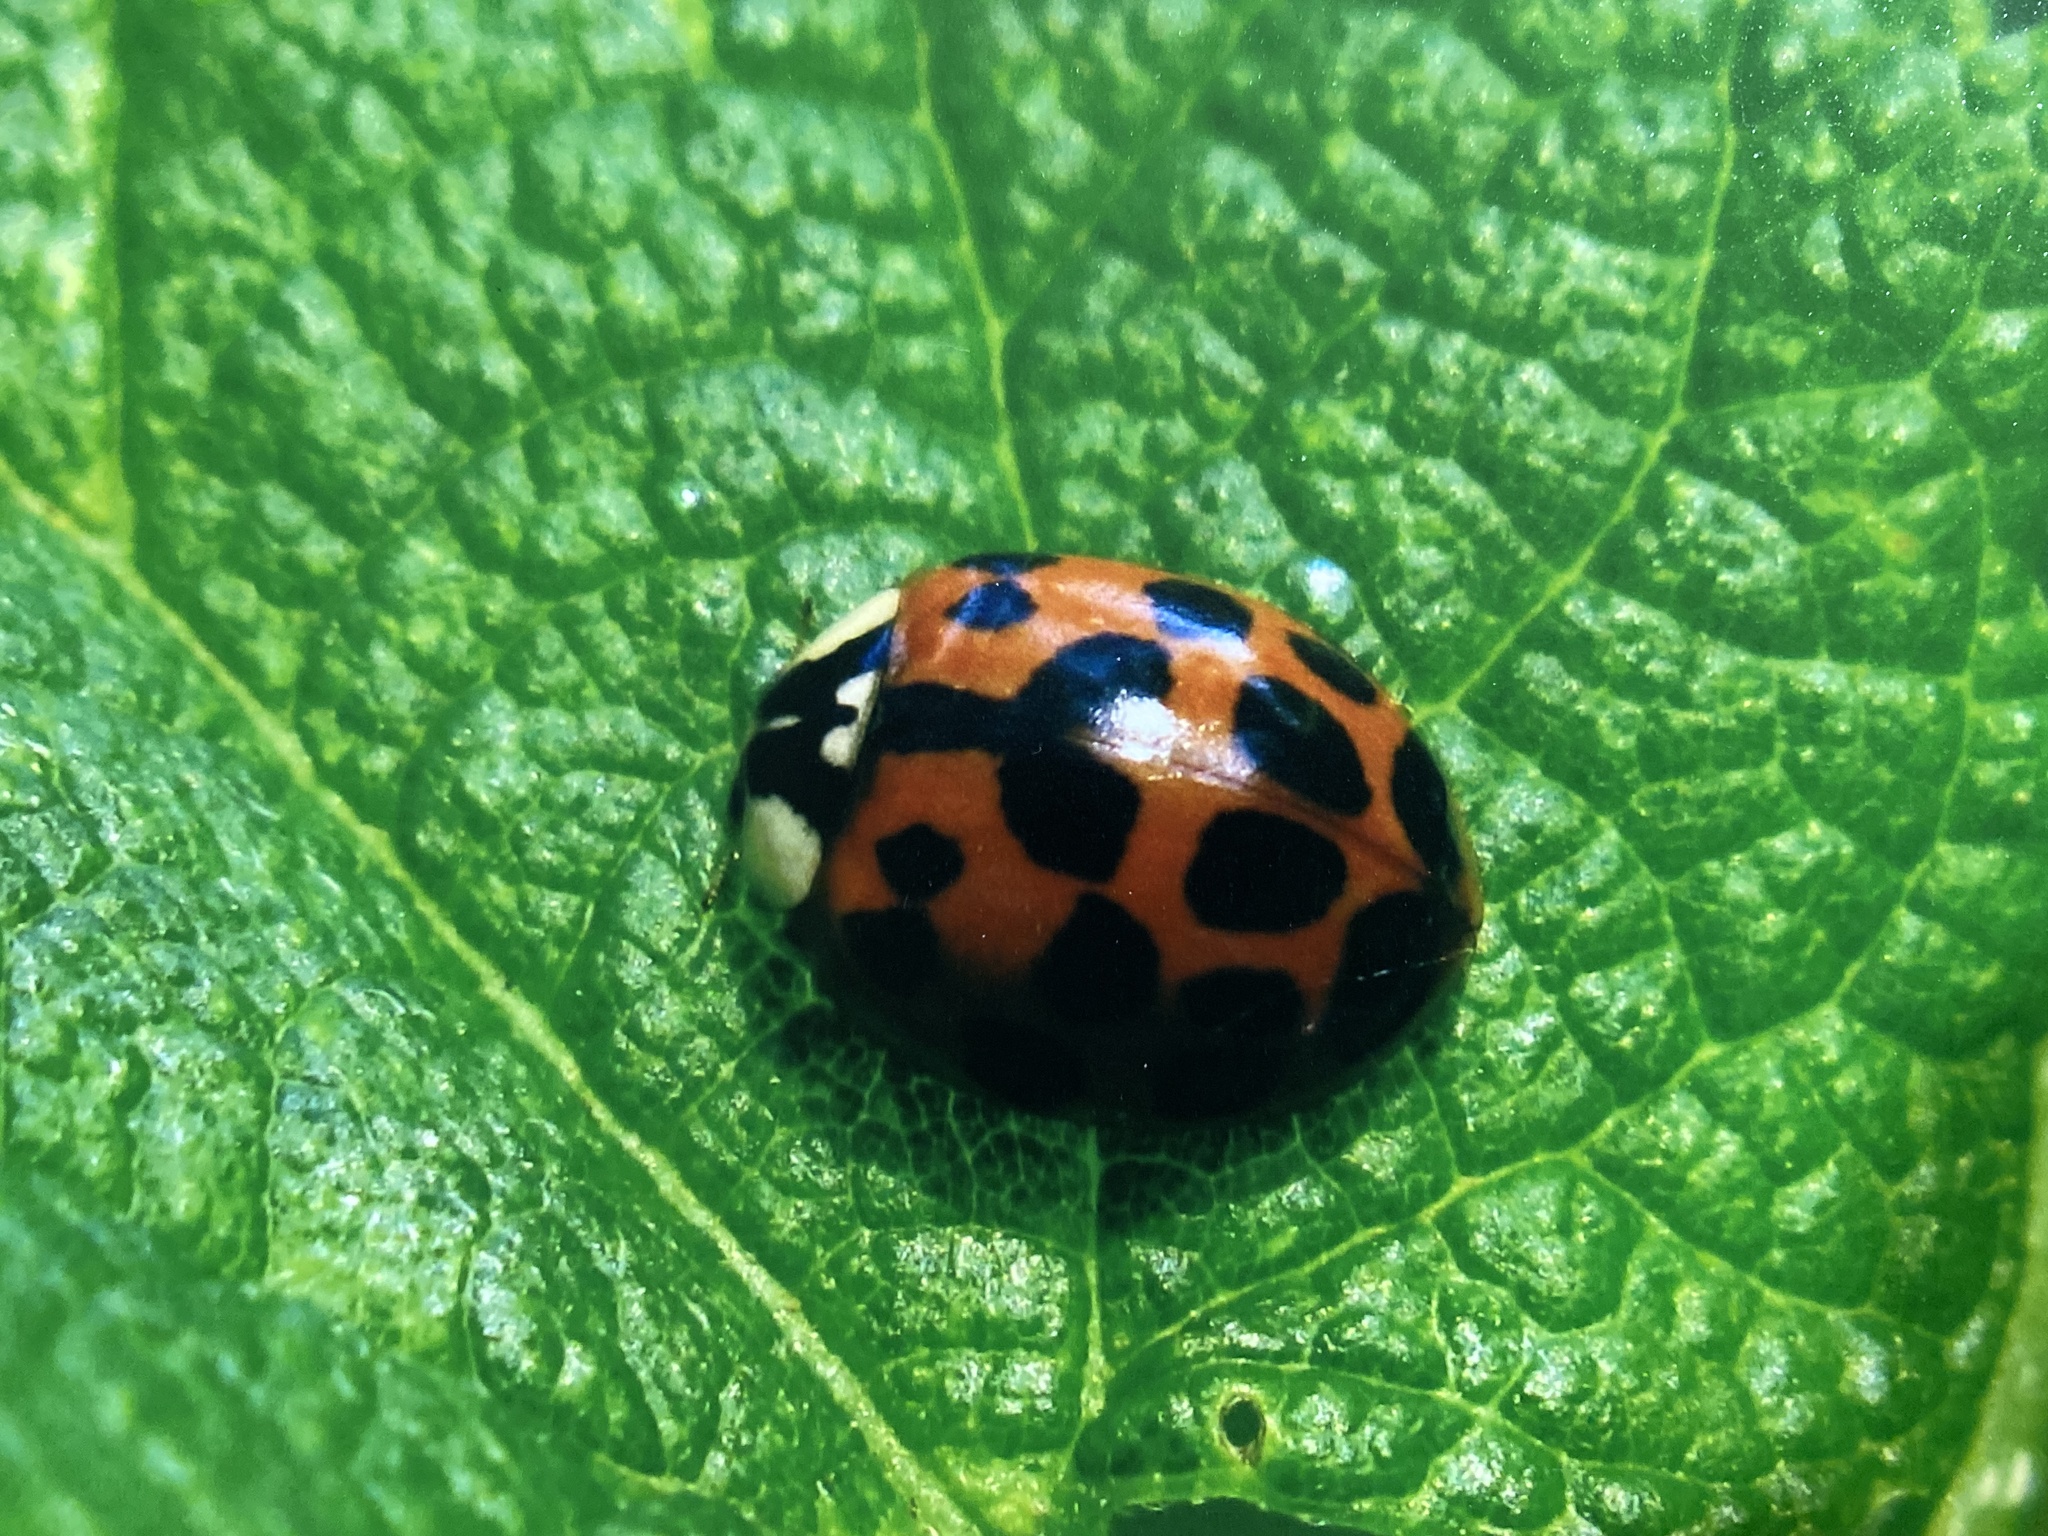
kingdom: Animalia
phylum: Arthropoda
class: Insecta
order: Coleoptera
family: Coccinellidae
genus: Harmonia
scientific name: Harmonia axyridis
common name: Harlequin ladybird
